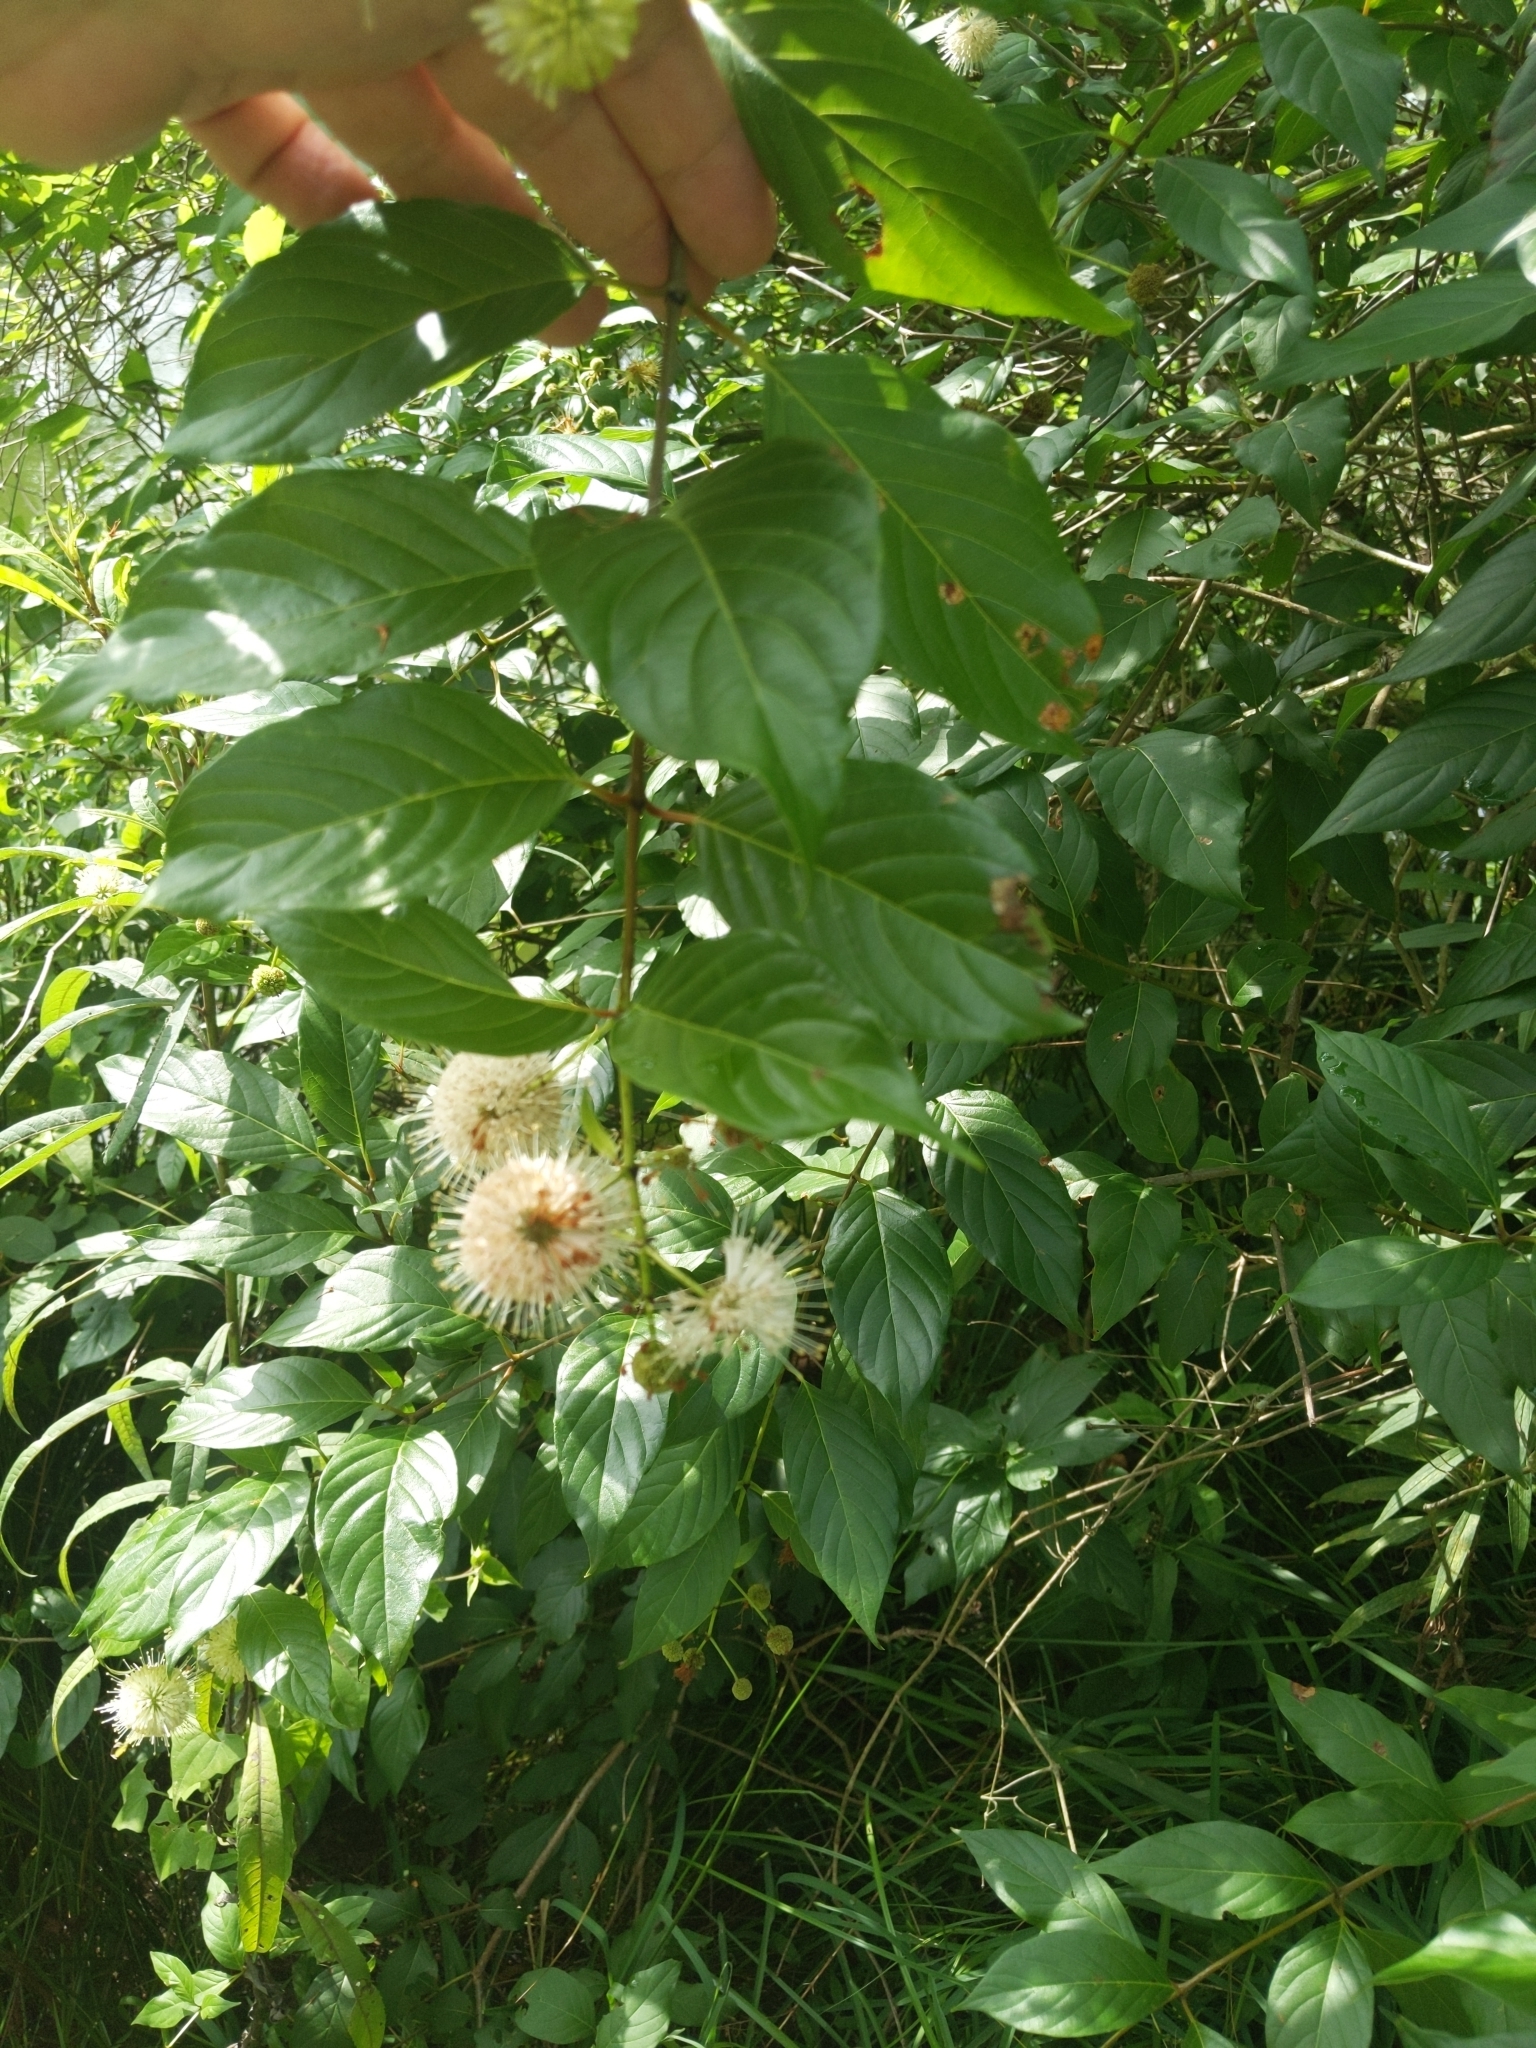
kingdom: Plantae
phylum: Tracheophyta
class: Magnoliopsida
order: Gentianales
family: Rubiaceae
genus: Cephalanthus
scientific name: Cephalanthus occidentalis
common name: Button-willow
